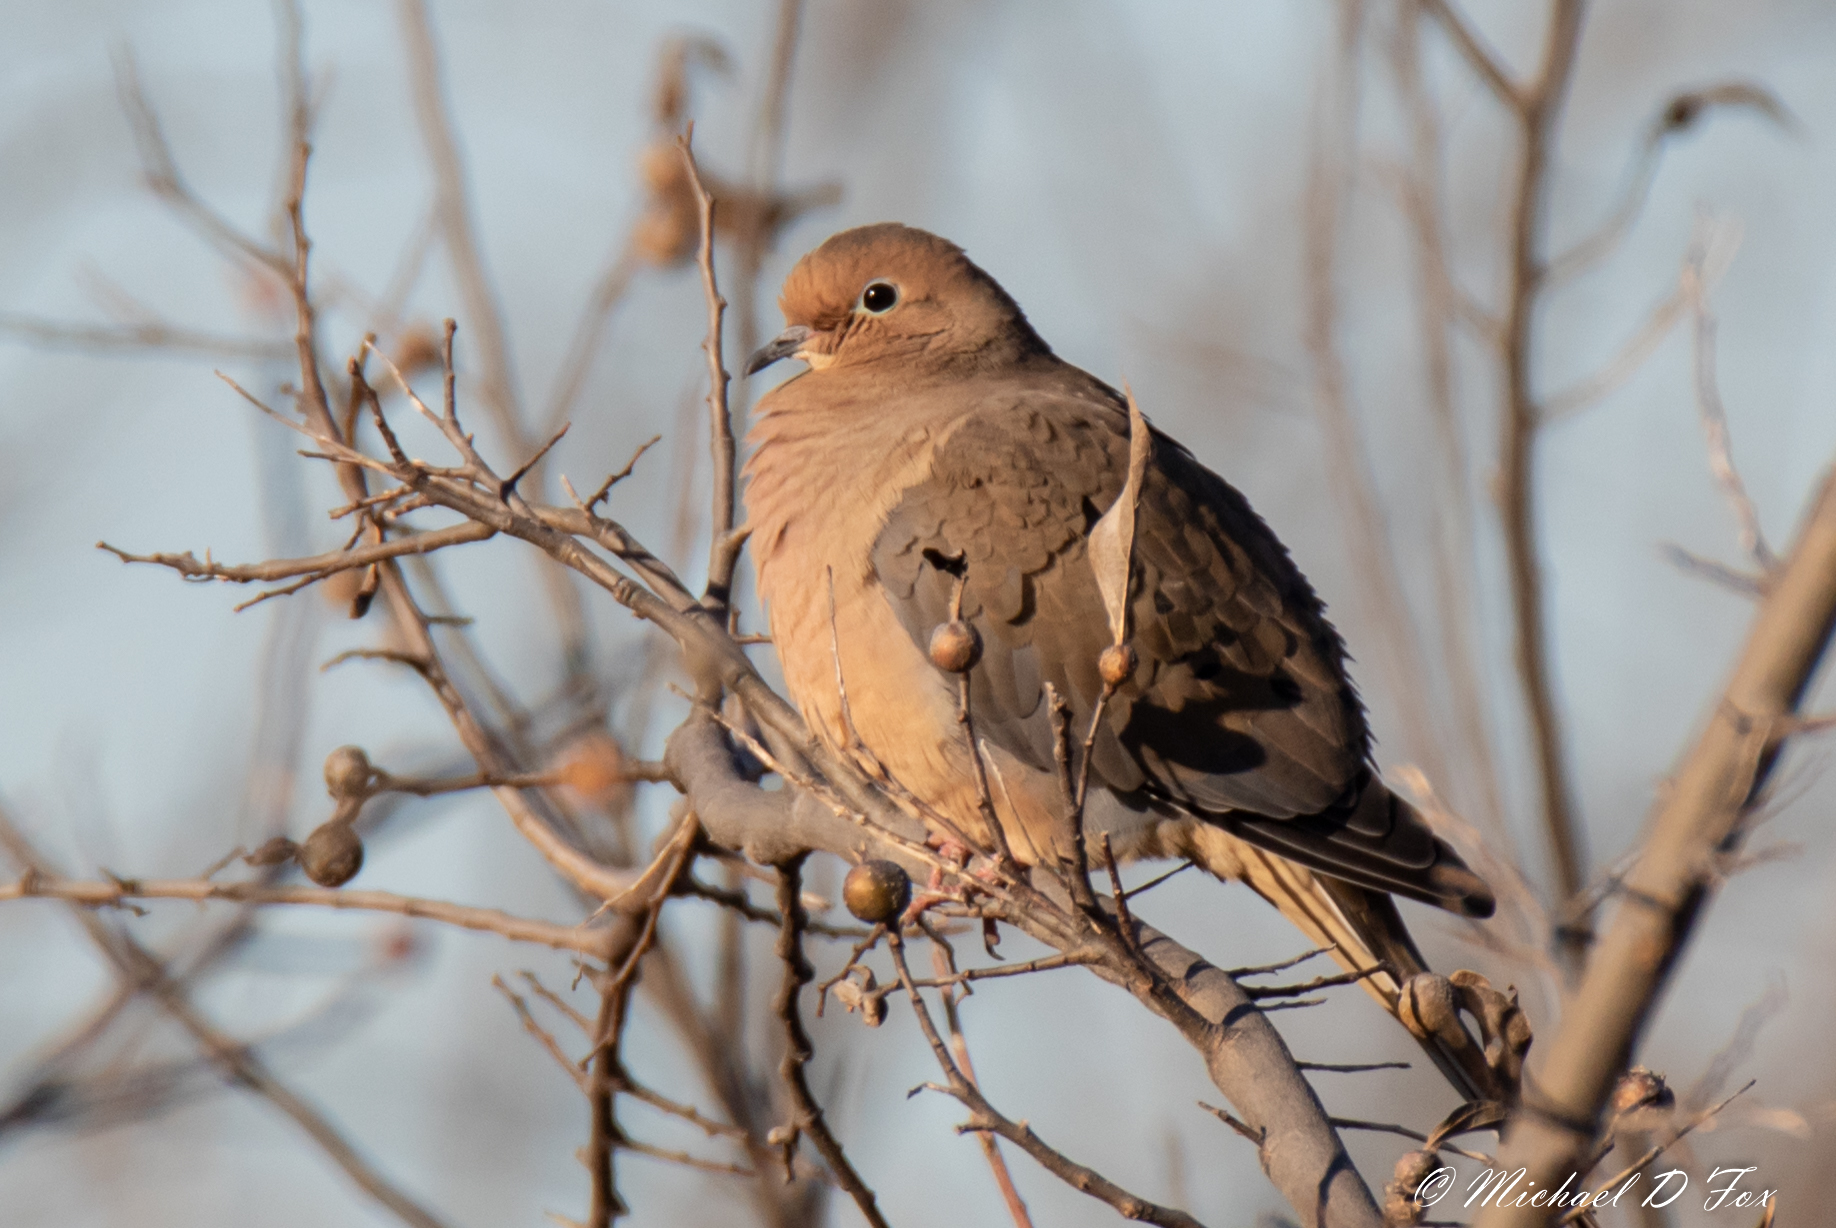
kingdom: Animalia
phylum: Chordata
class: Aves
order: Columbiformes
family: Columbidae
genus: Zenaida
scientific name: Zenaida macroura
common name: Mourning dove
